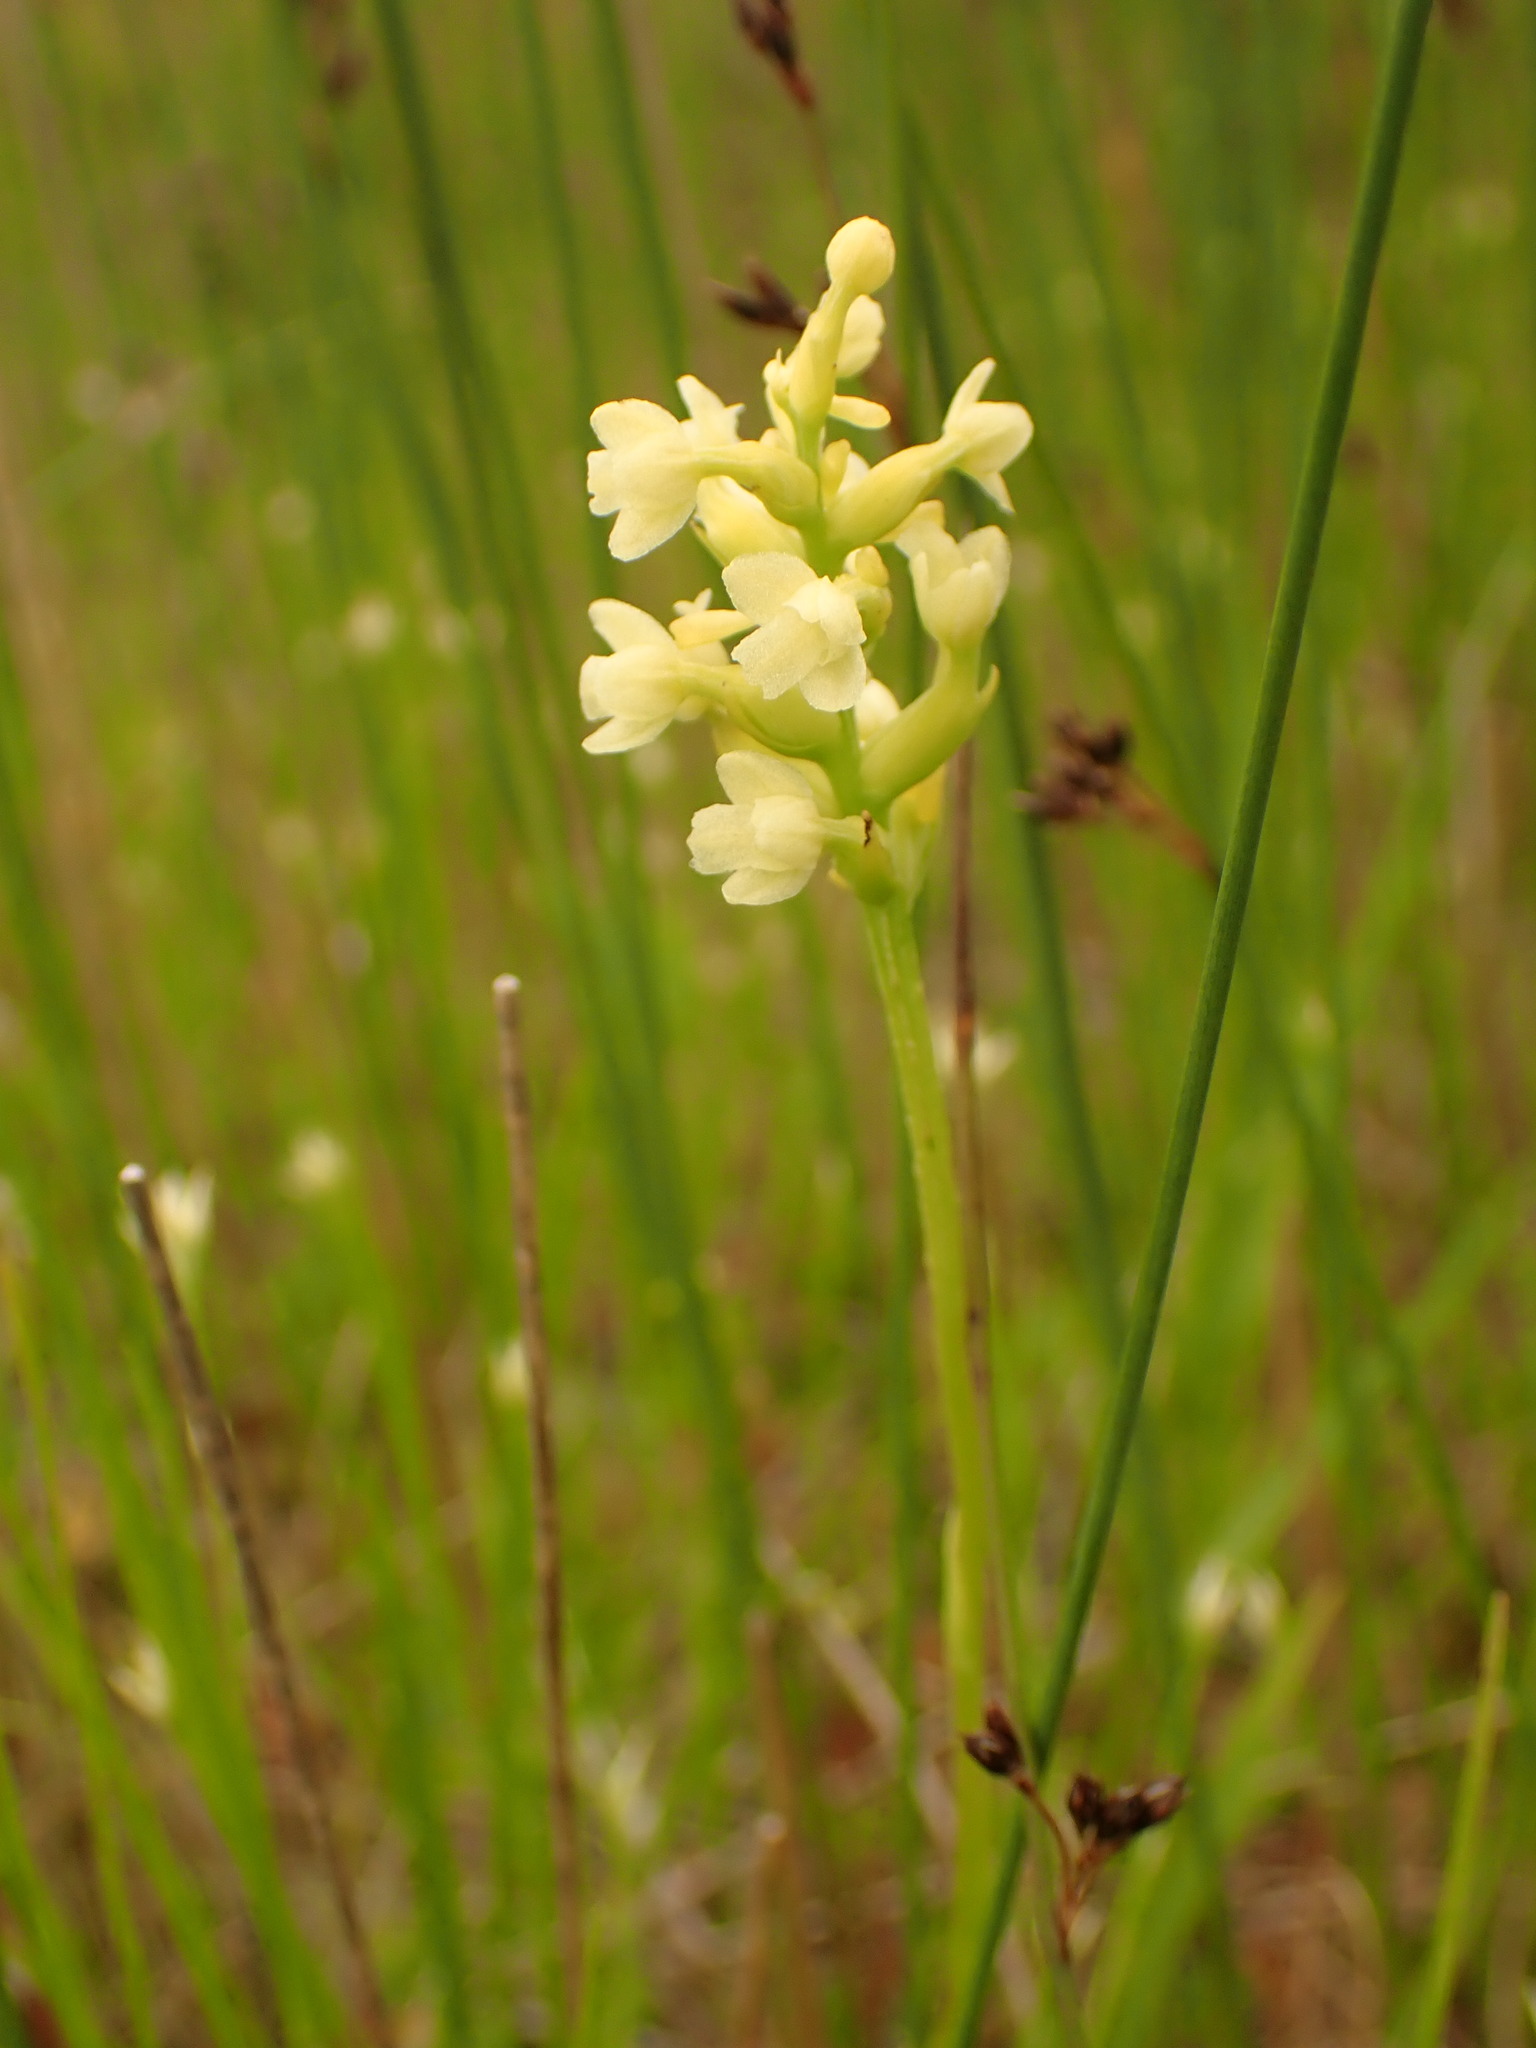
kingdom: Plantae
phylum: Tracheophyta
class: Liliopsida
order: Asparagales
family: Orchidaceae
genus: Platanthera
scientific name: Platanthera clavellata
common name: Club-spur orchid
